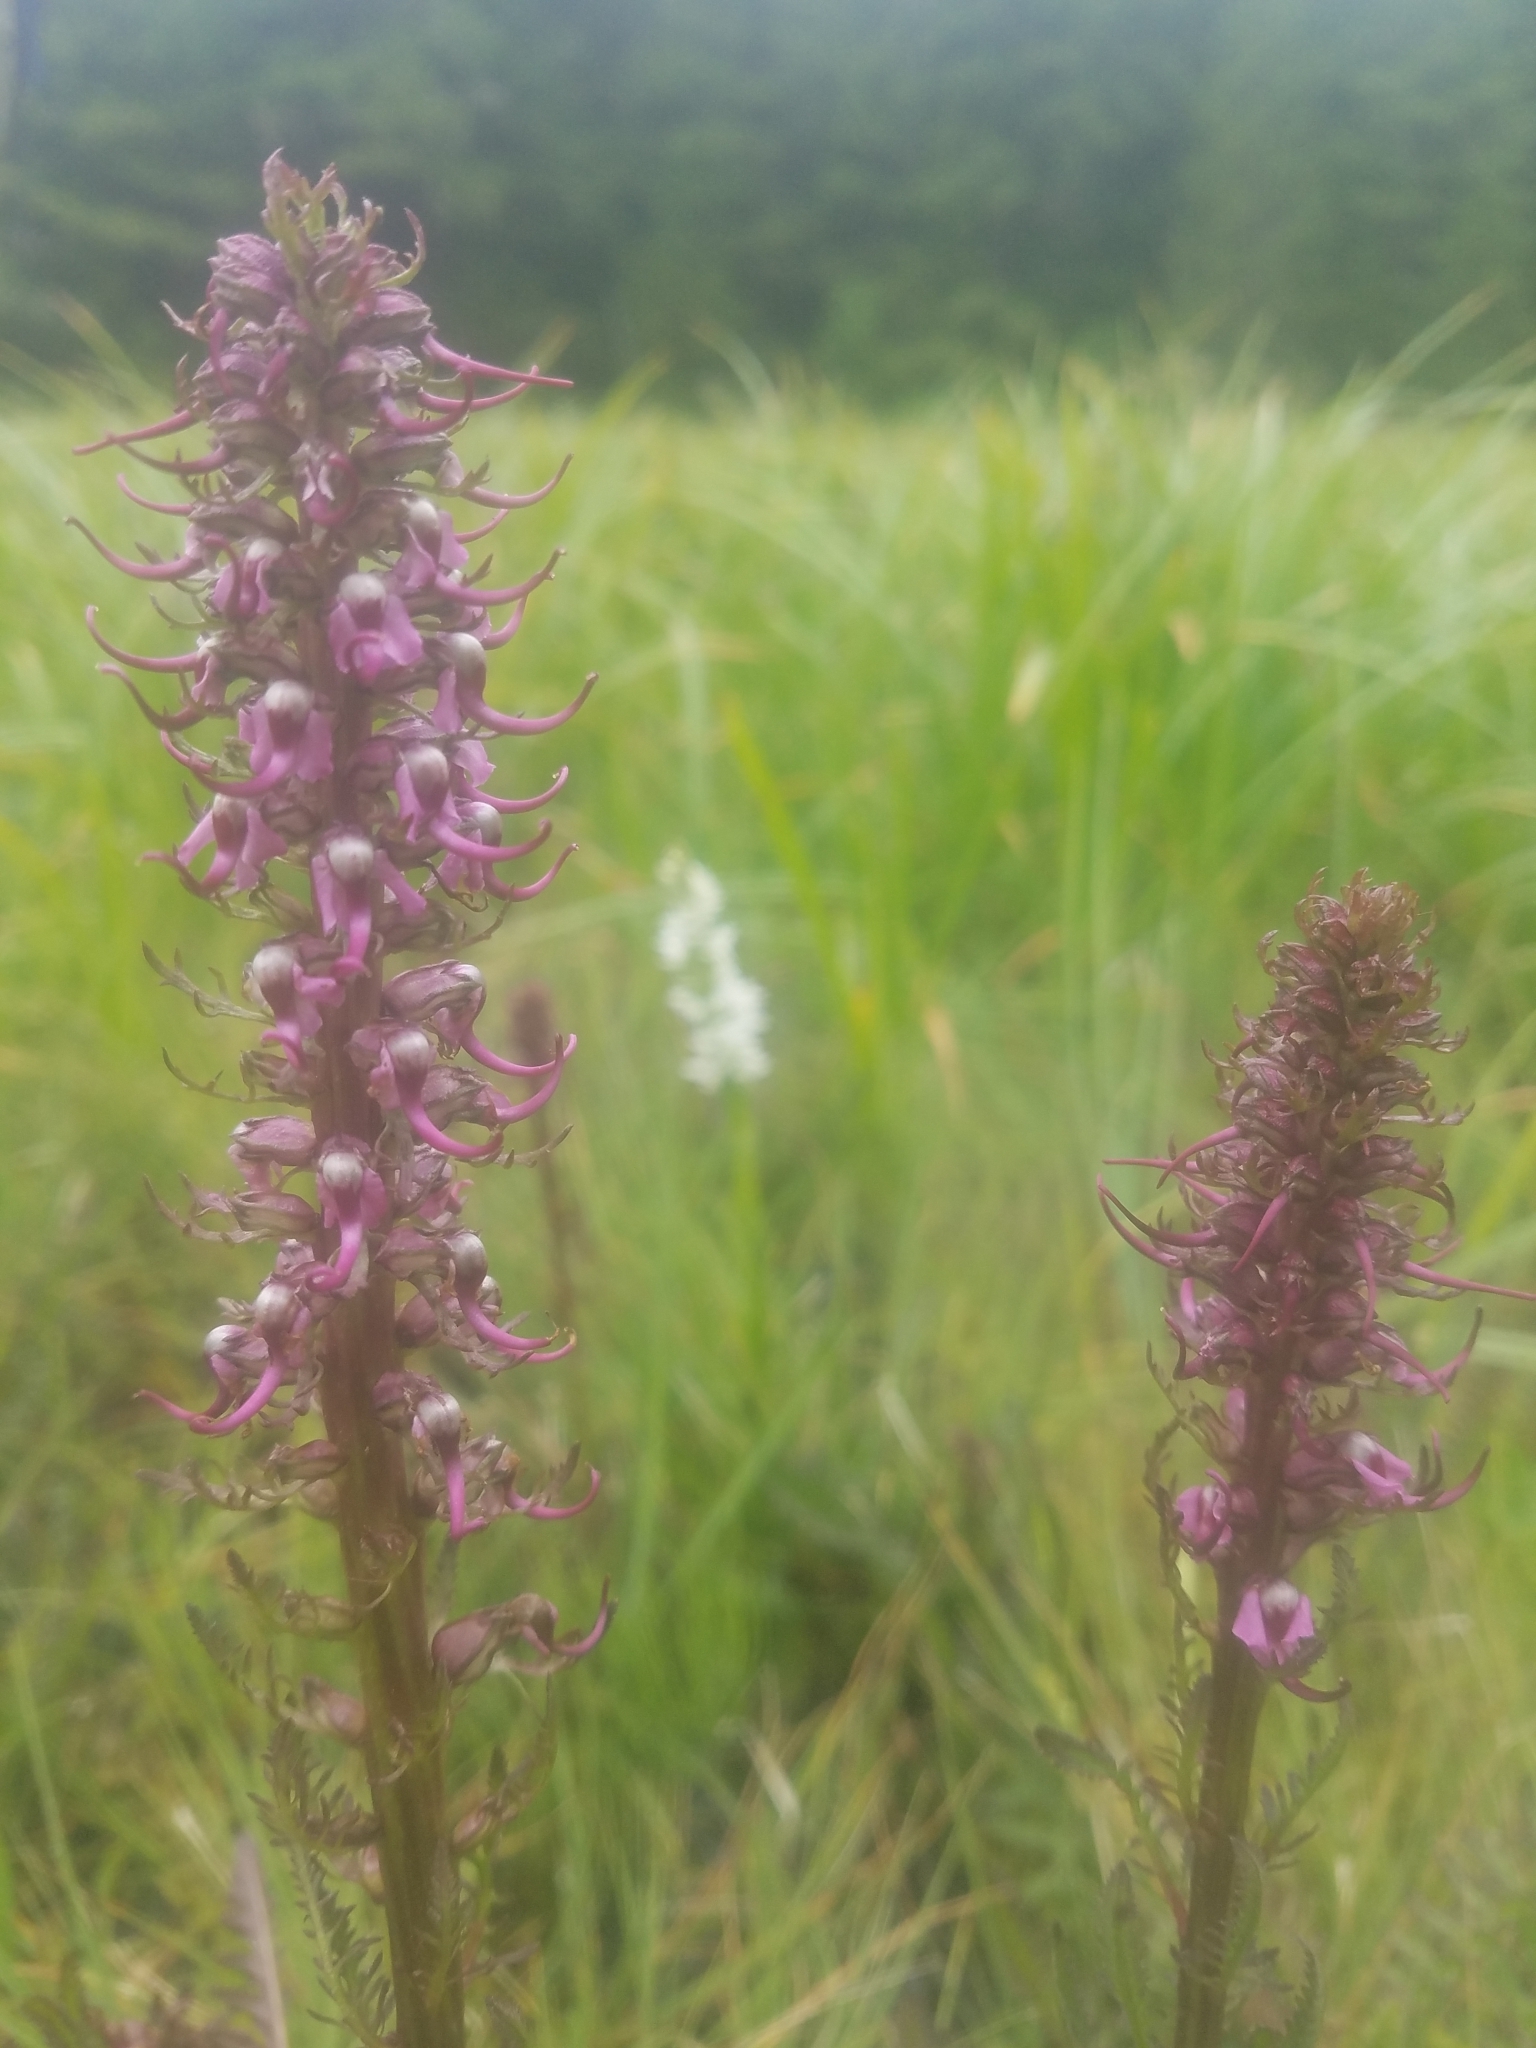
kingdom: Plantae
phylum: Tracheophyta
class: Magnoliopsida
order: Lamiales
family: Orobanchaceae
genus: Pedicularis
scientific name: Pedicularis groenlandica
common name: Elephant's-head
